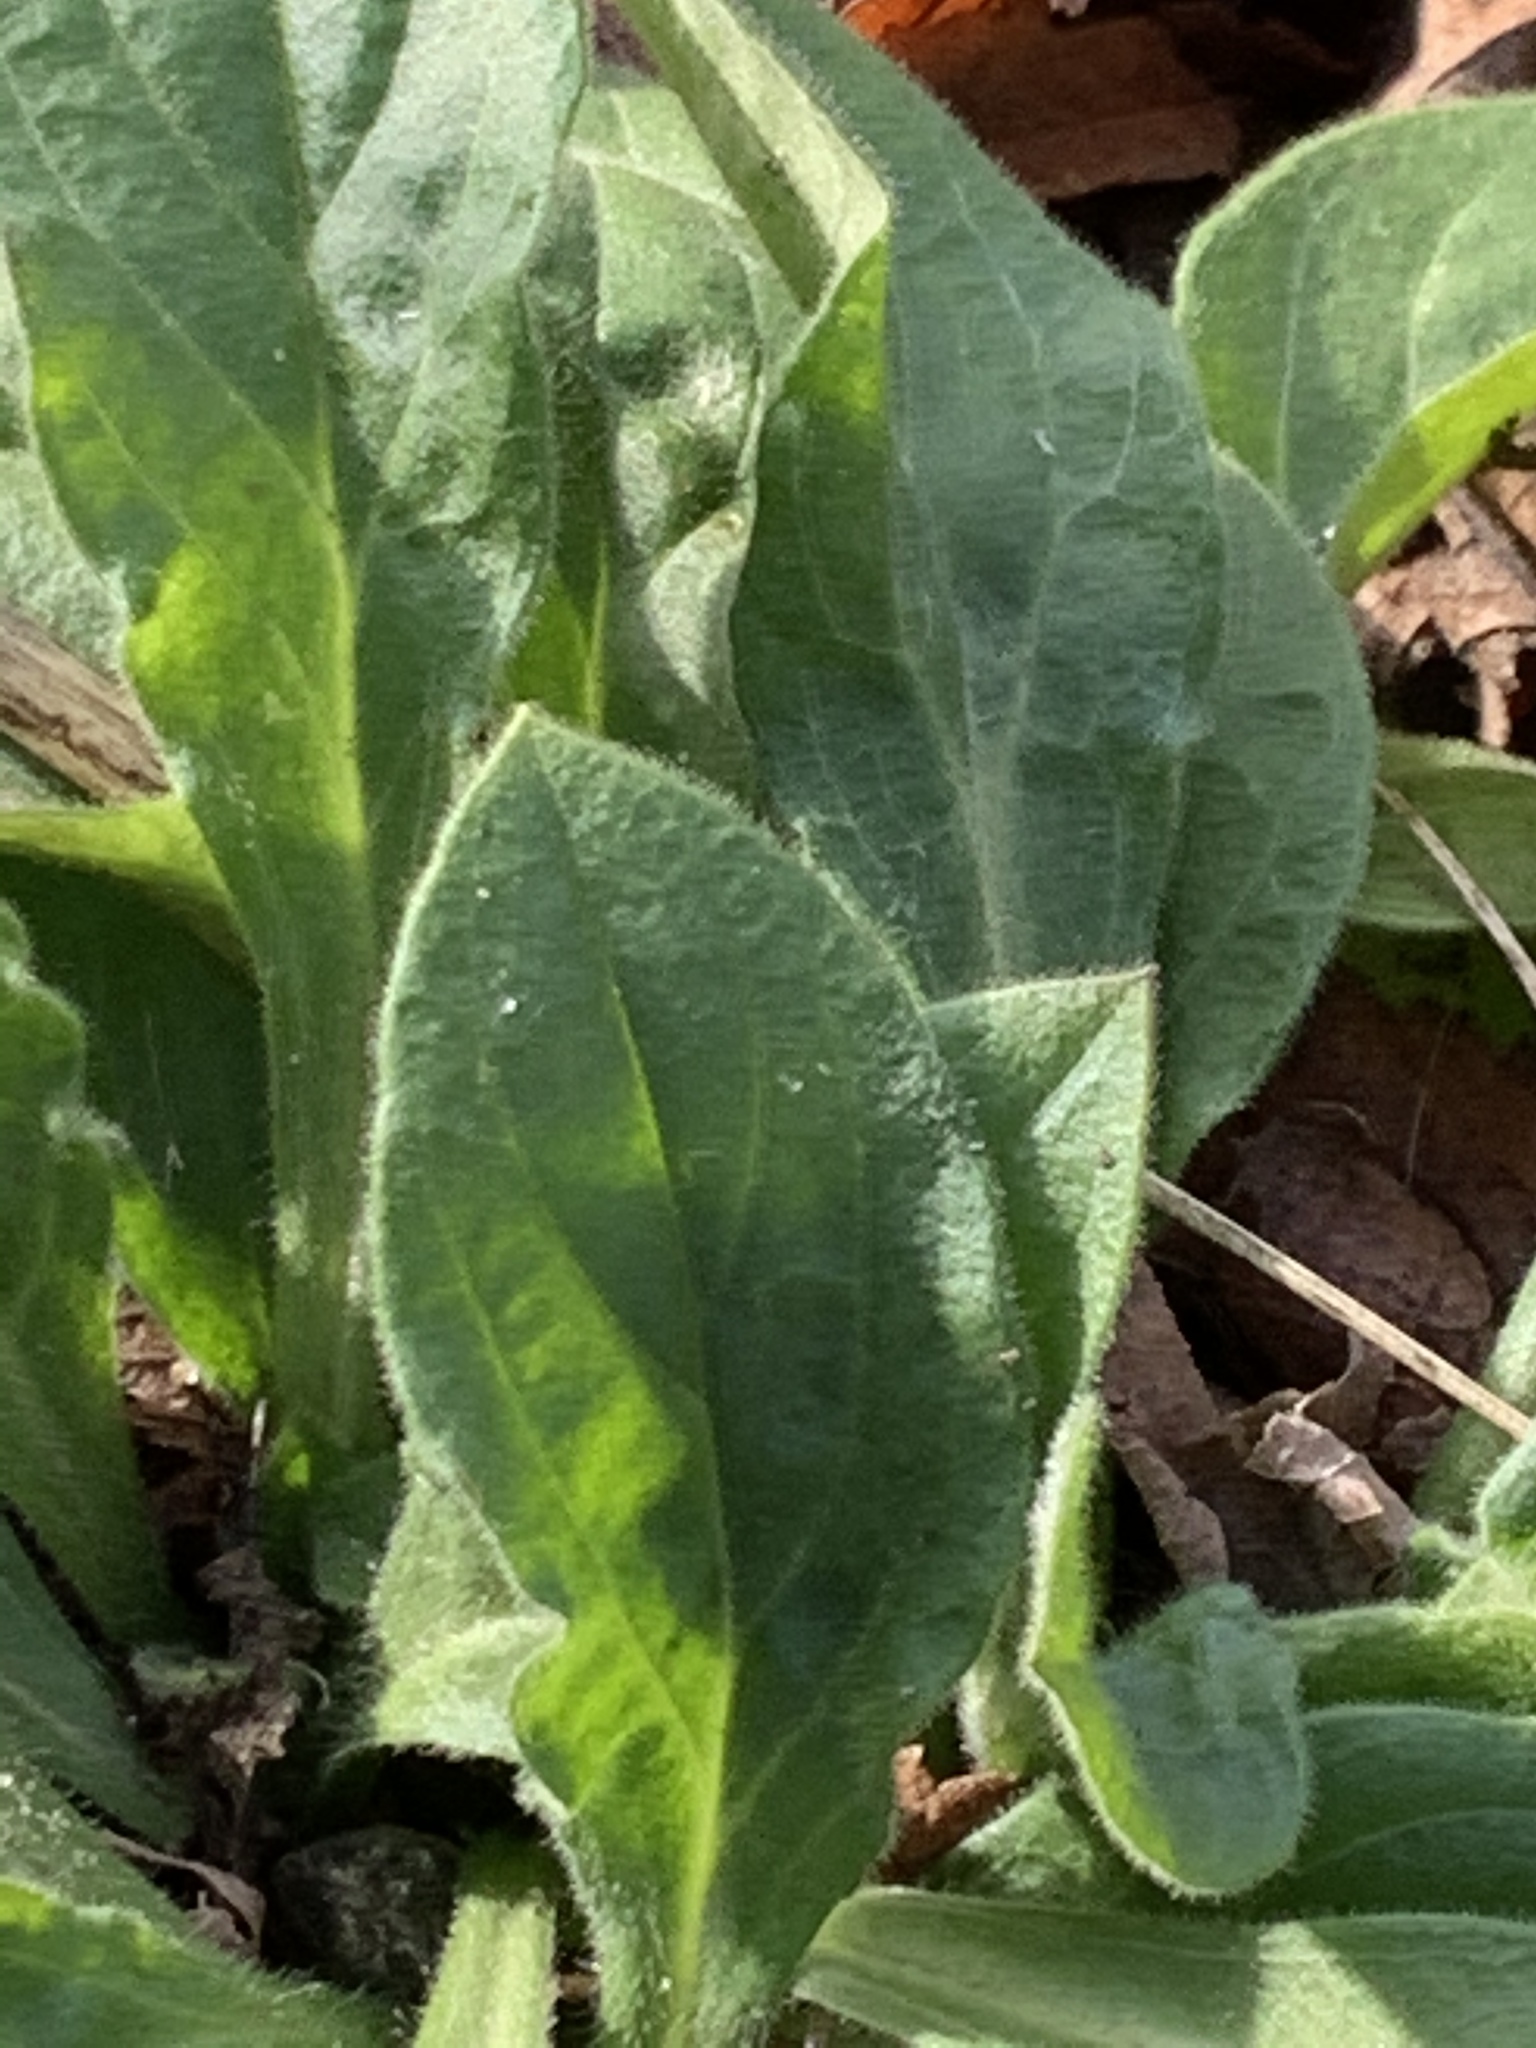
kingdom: Plantae
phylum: Tracheophyta
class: Magnoliopsida
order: Caryophyllales
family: Caryophyllaceae
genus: Silene
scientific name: Silene latifolia
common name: White campion
